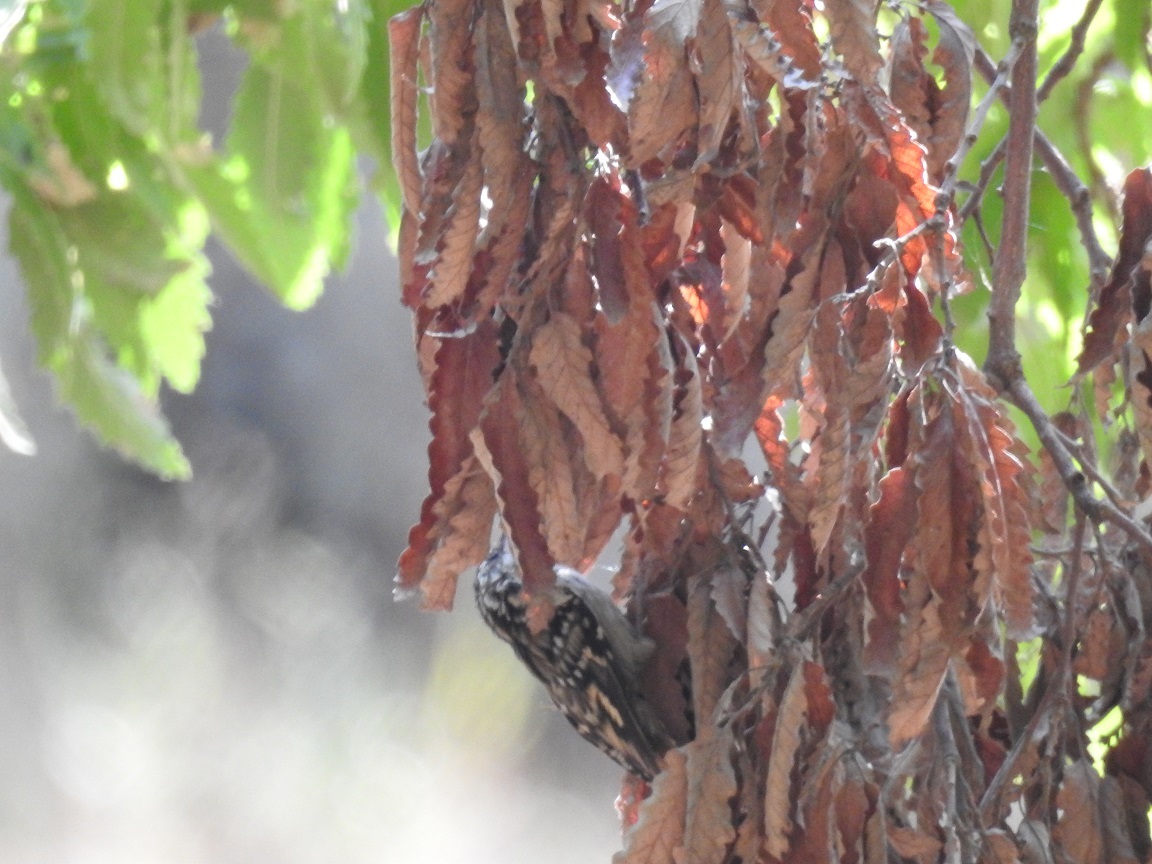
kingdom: Animalia
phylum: Chordata
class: Aves
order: Passeriformes
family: Certhiidae
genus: Certhia
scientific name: Certhia brachydactyla
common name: Short-toed treecreeper
